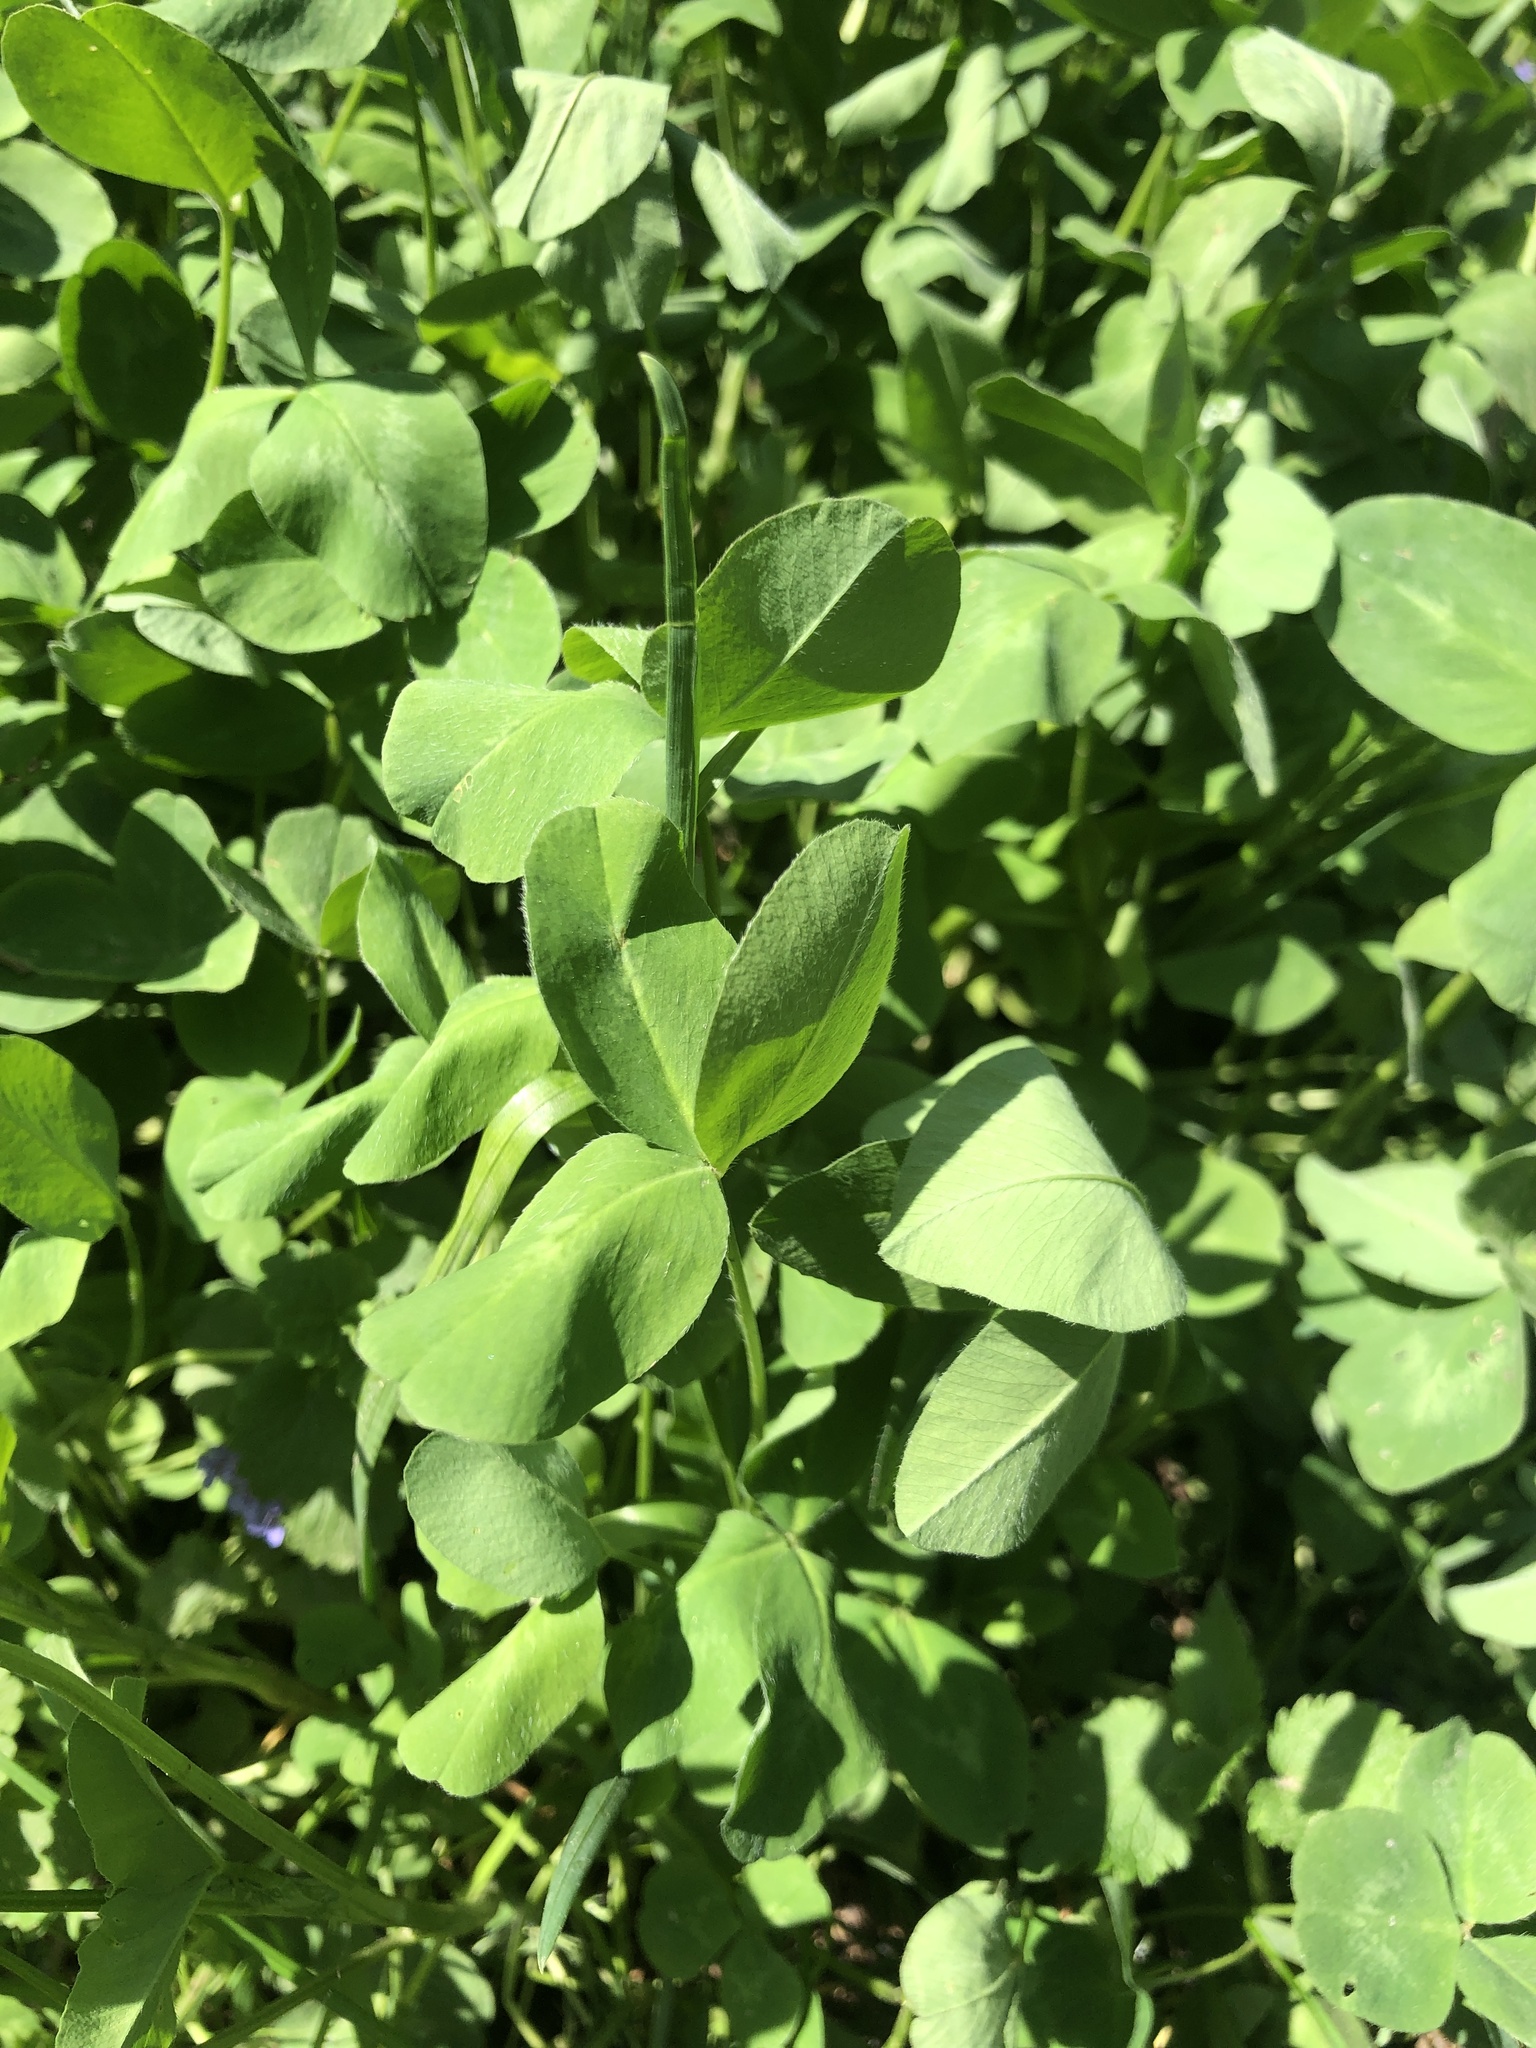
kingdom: Plantae
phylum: Tracheophyta
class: Magnoliopsida
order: Fabales
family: Fabaceae
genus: Trifolium
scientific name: Trifolium pratense
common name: Red clover
